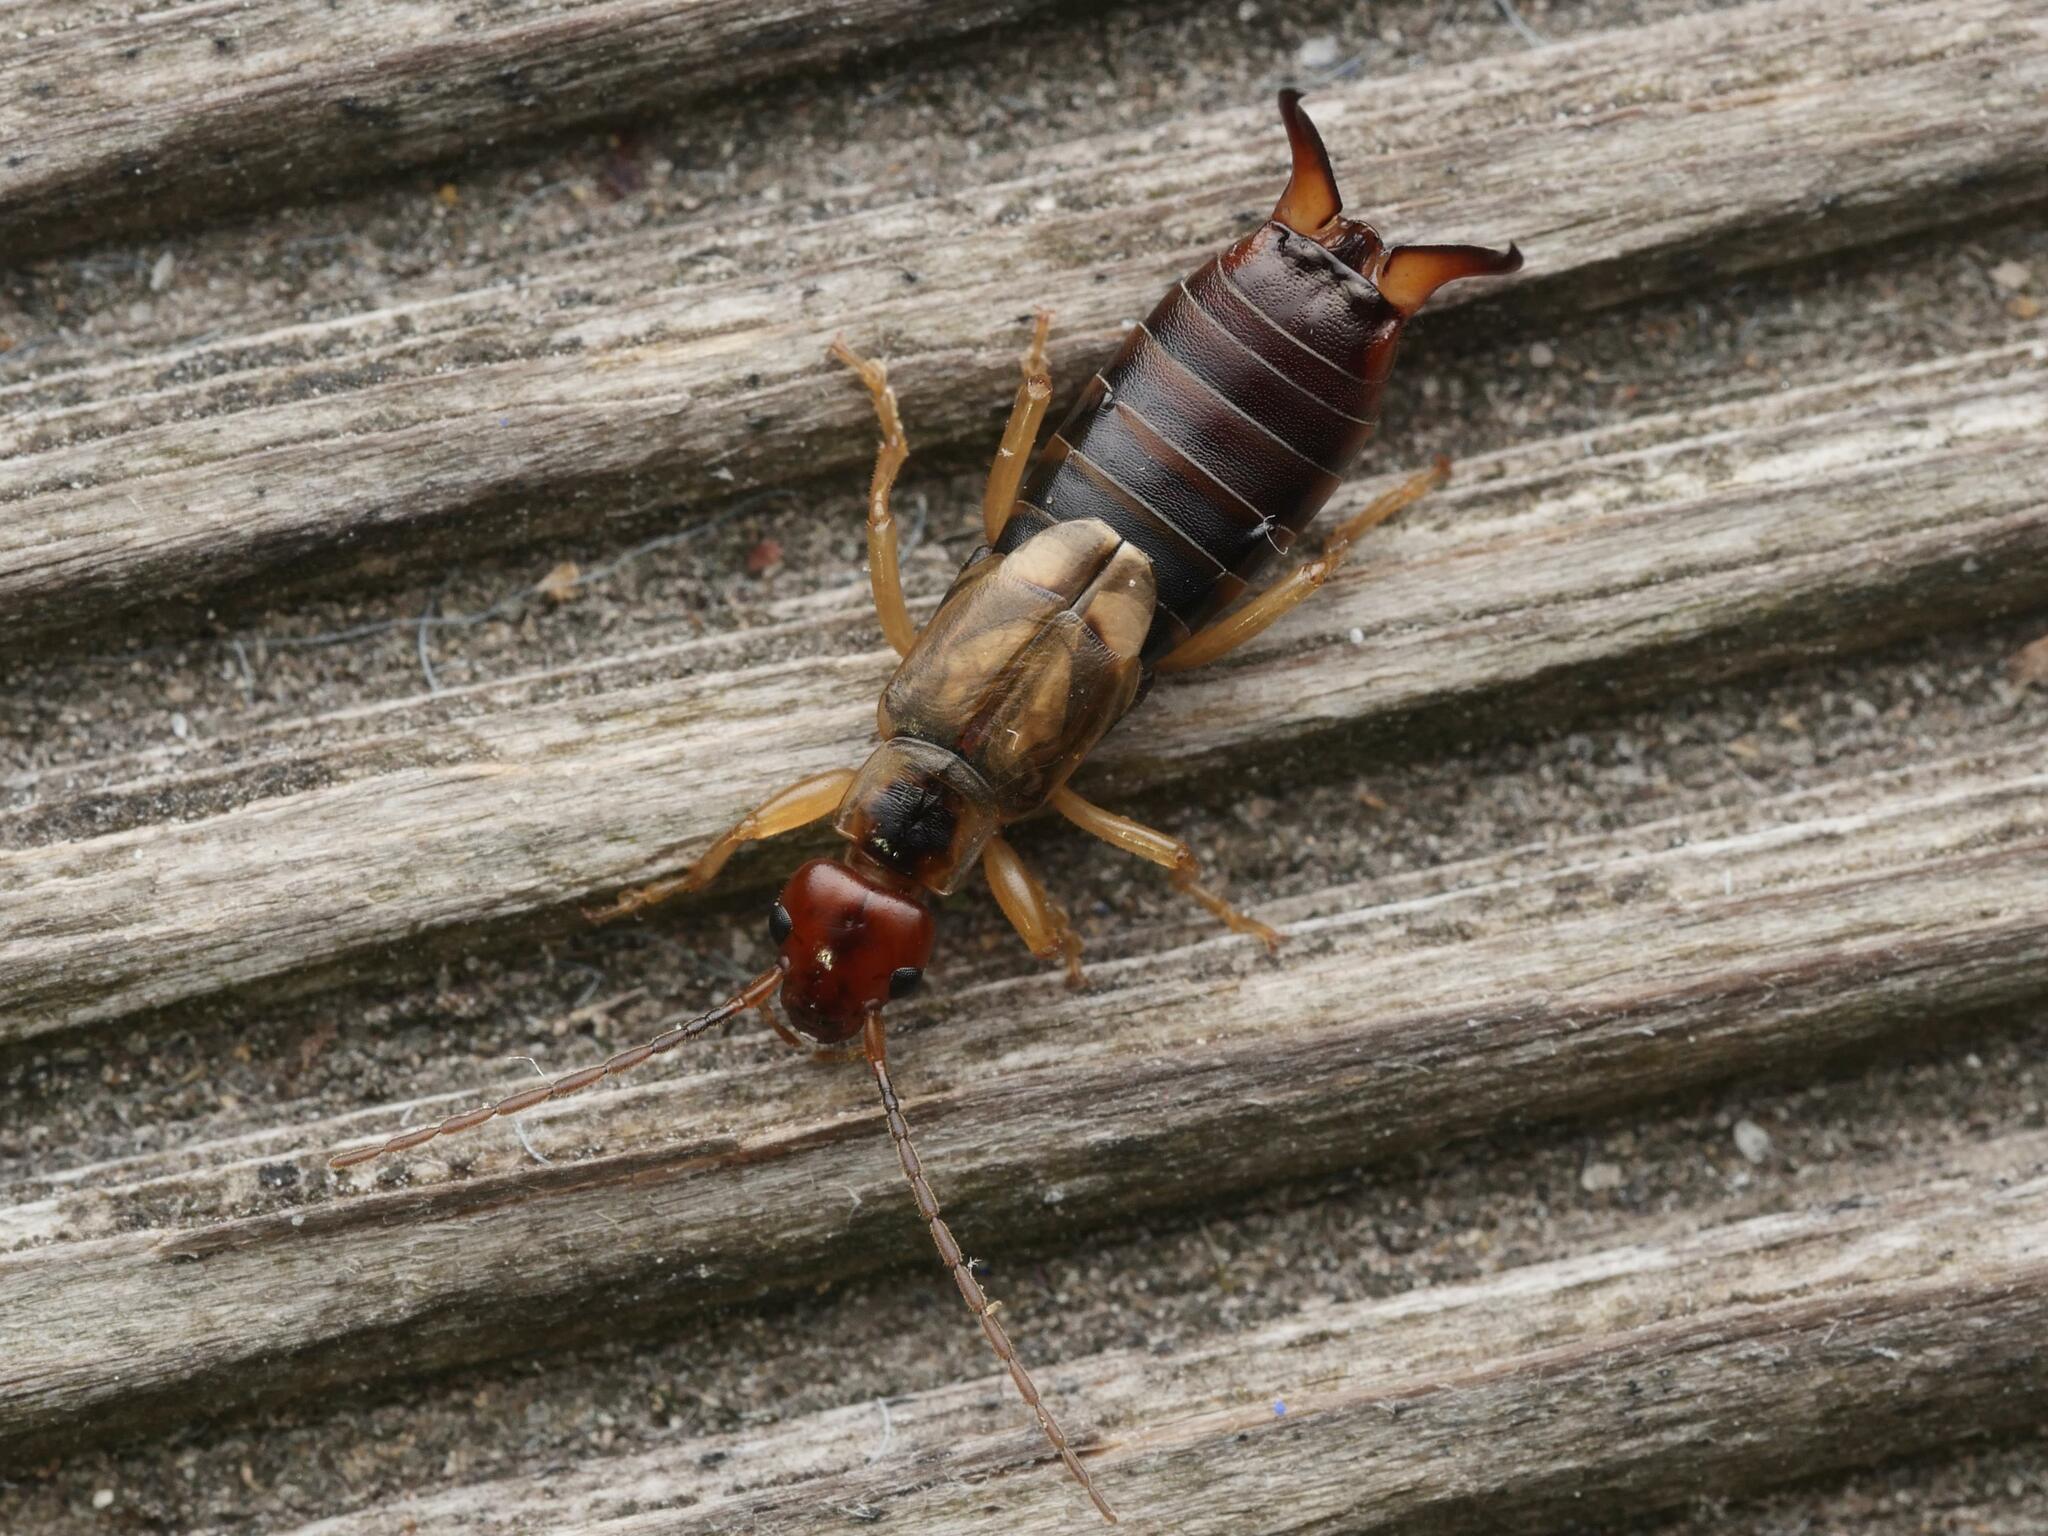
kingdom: Animalia
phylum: Arthropoda
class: Insecta
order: Dermaptera
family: Forficulidae
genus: Forficula
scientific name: Forficula
